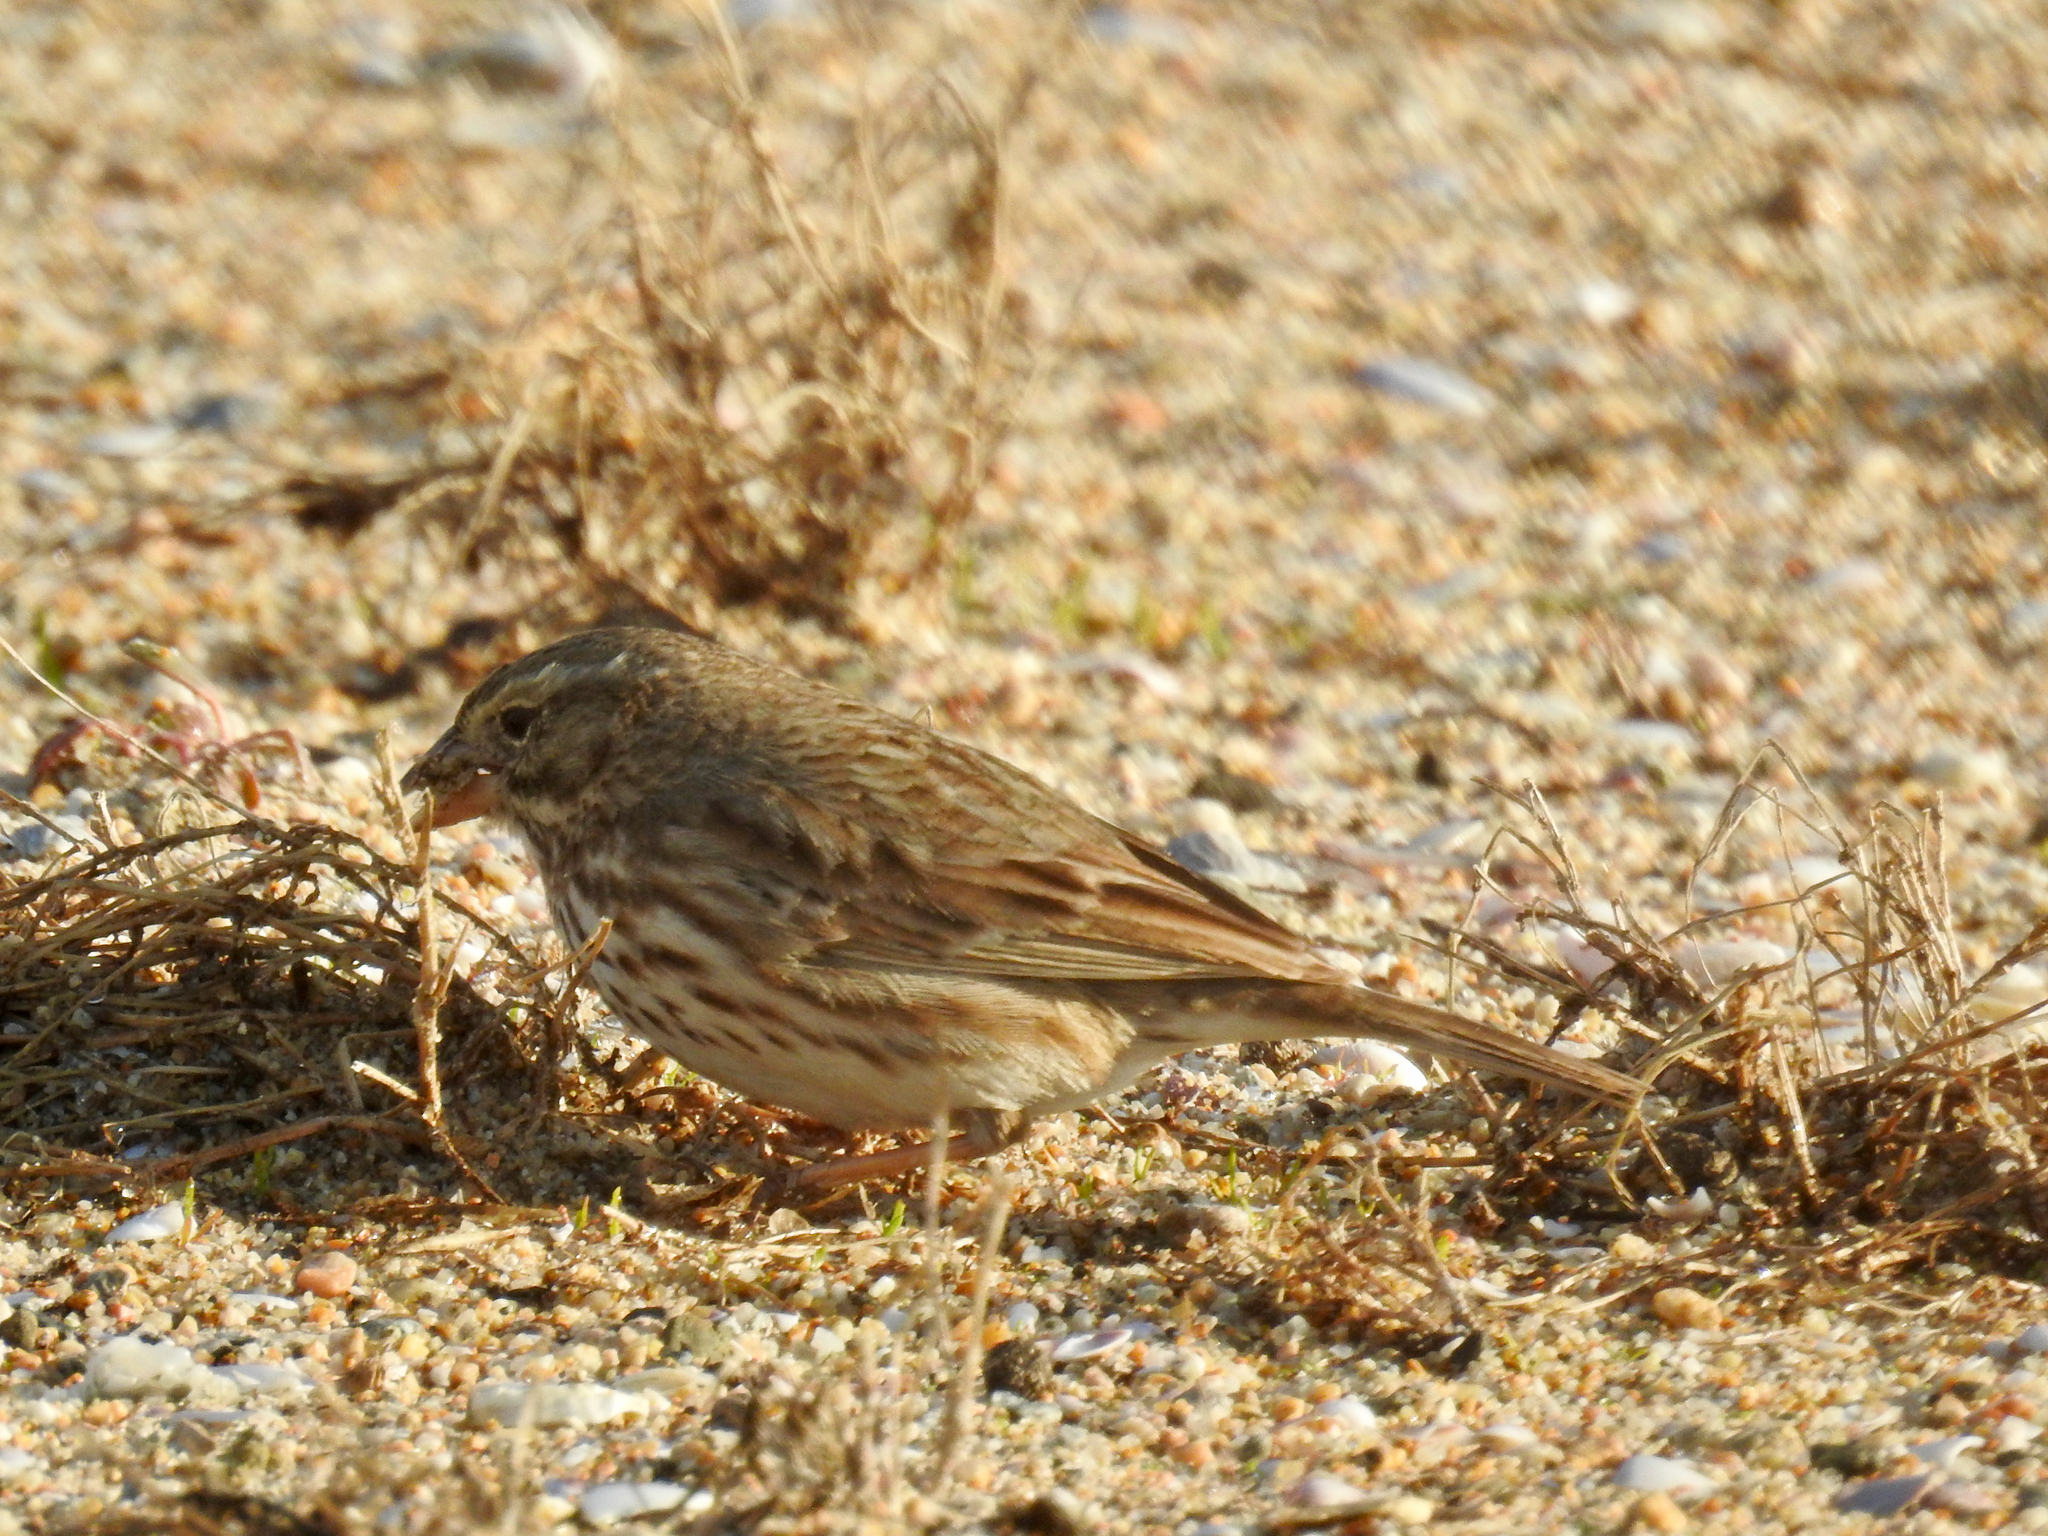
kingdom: Animalia
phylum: Chordata
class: Aves
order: Passeriformes
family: Passerellidae
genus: Passerculus
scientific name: Passerculus sandwichensis
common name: Savannah sparrow
